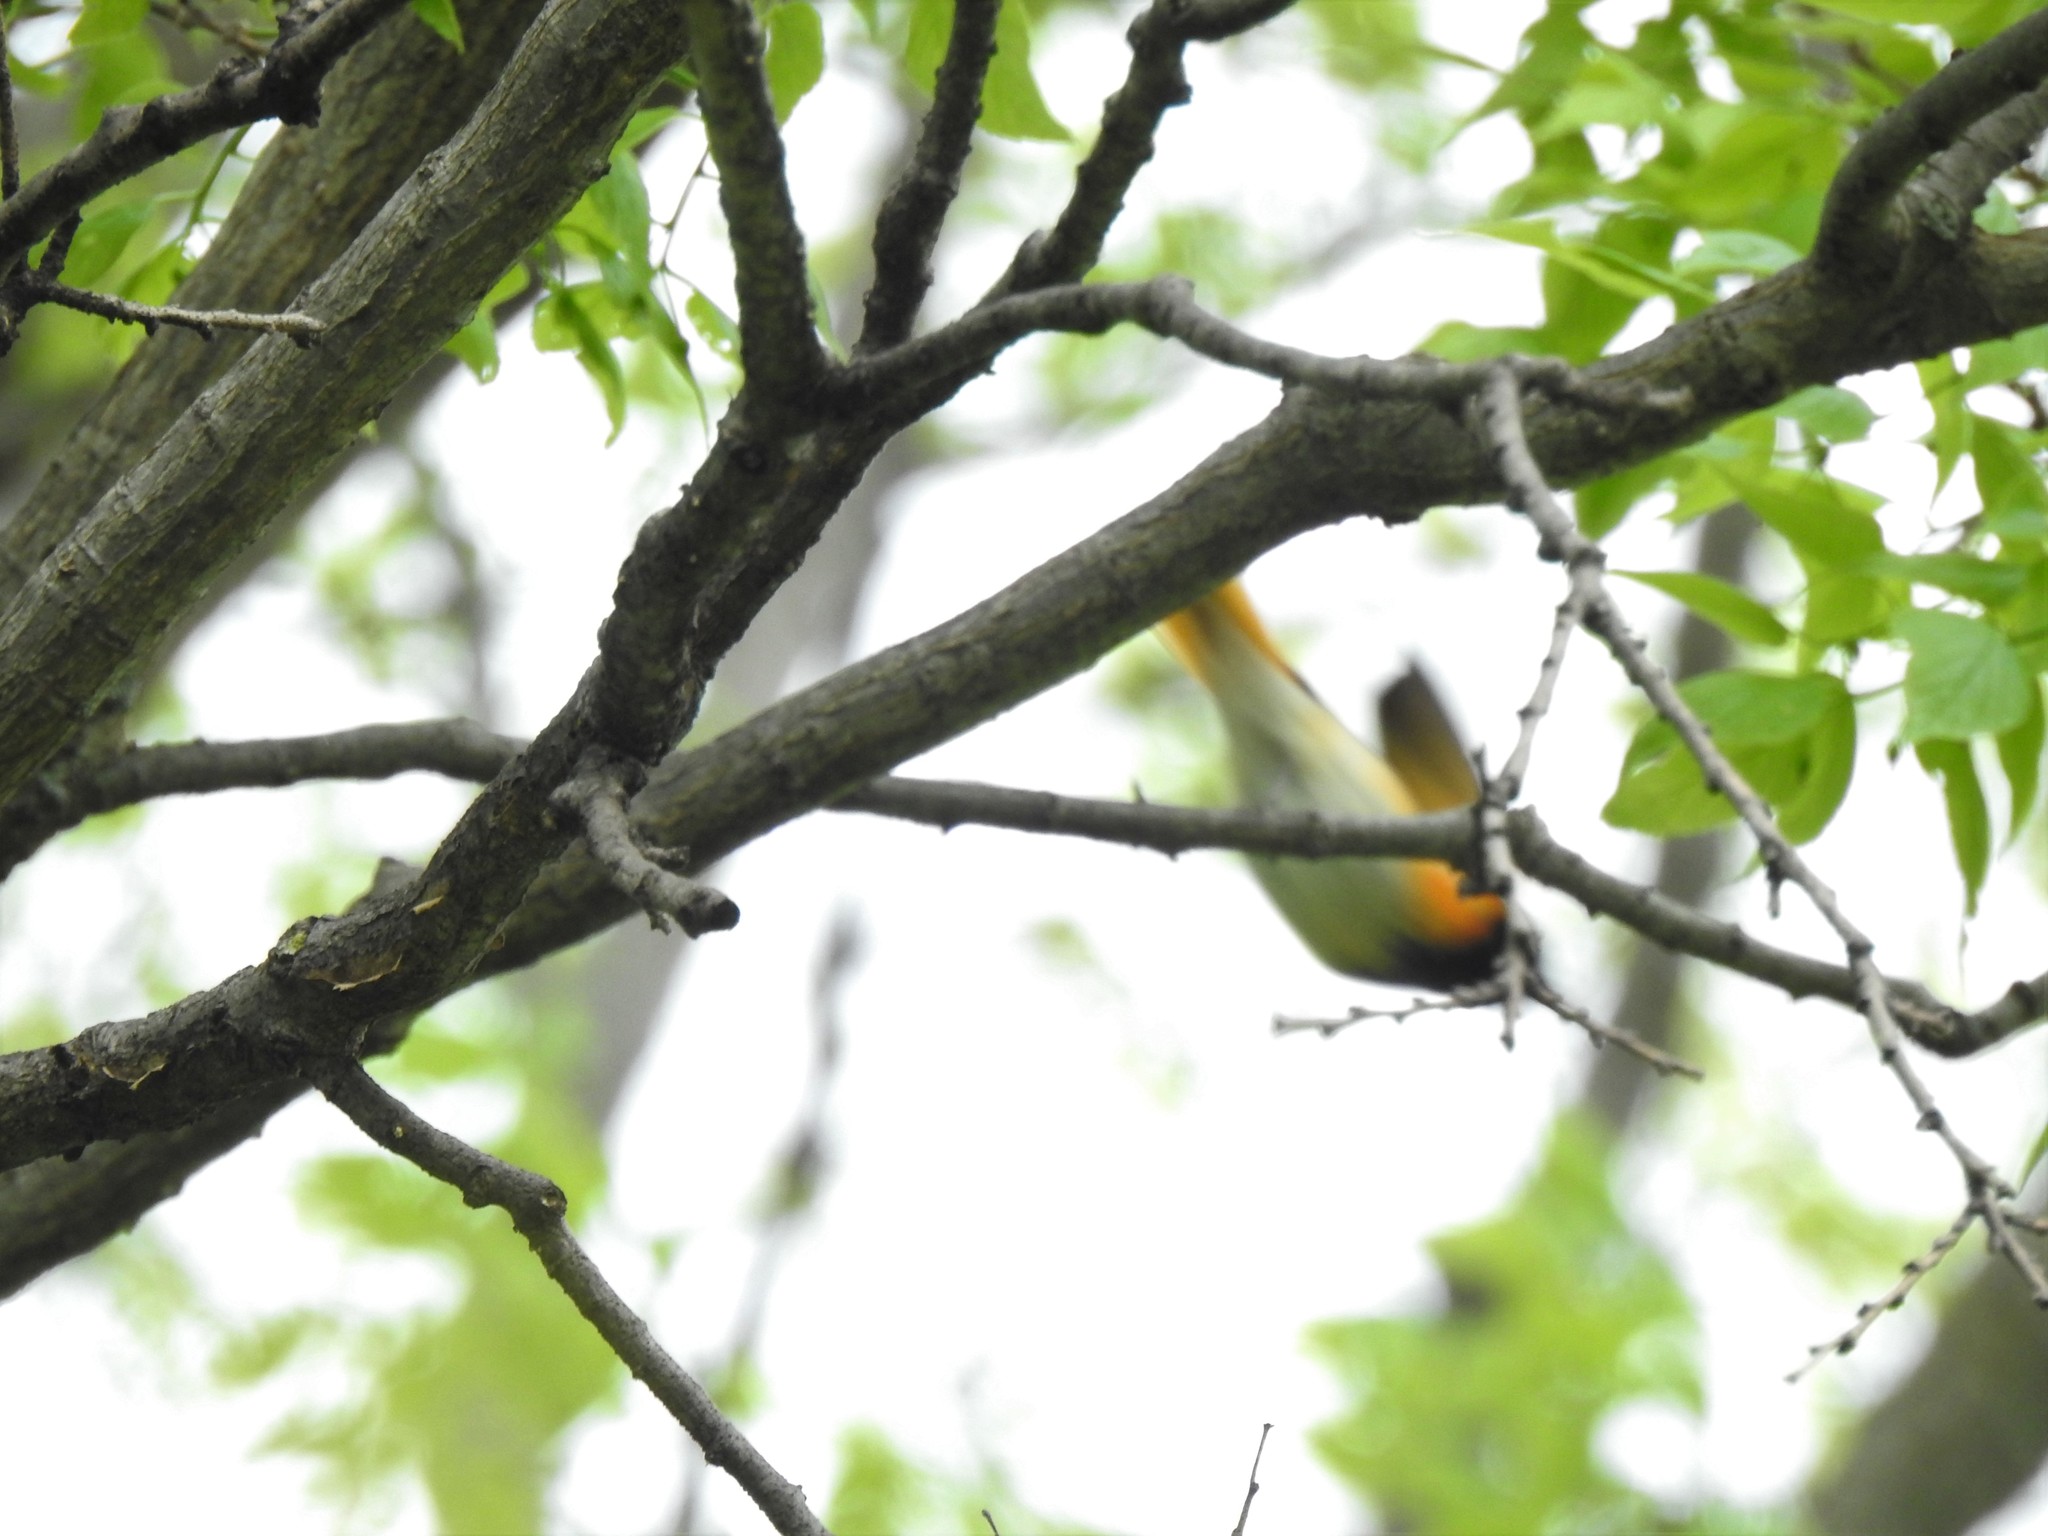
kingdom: Animalia
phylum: Chordata
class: Aves
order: Passeriformes
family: Parulidae
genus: Setophaga
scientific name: Setophaga ruticilla
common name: American redstart
